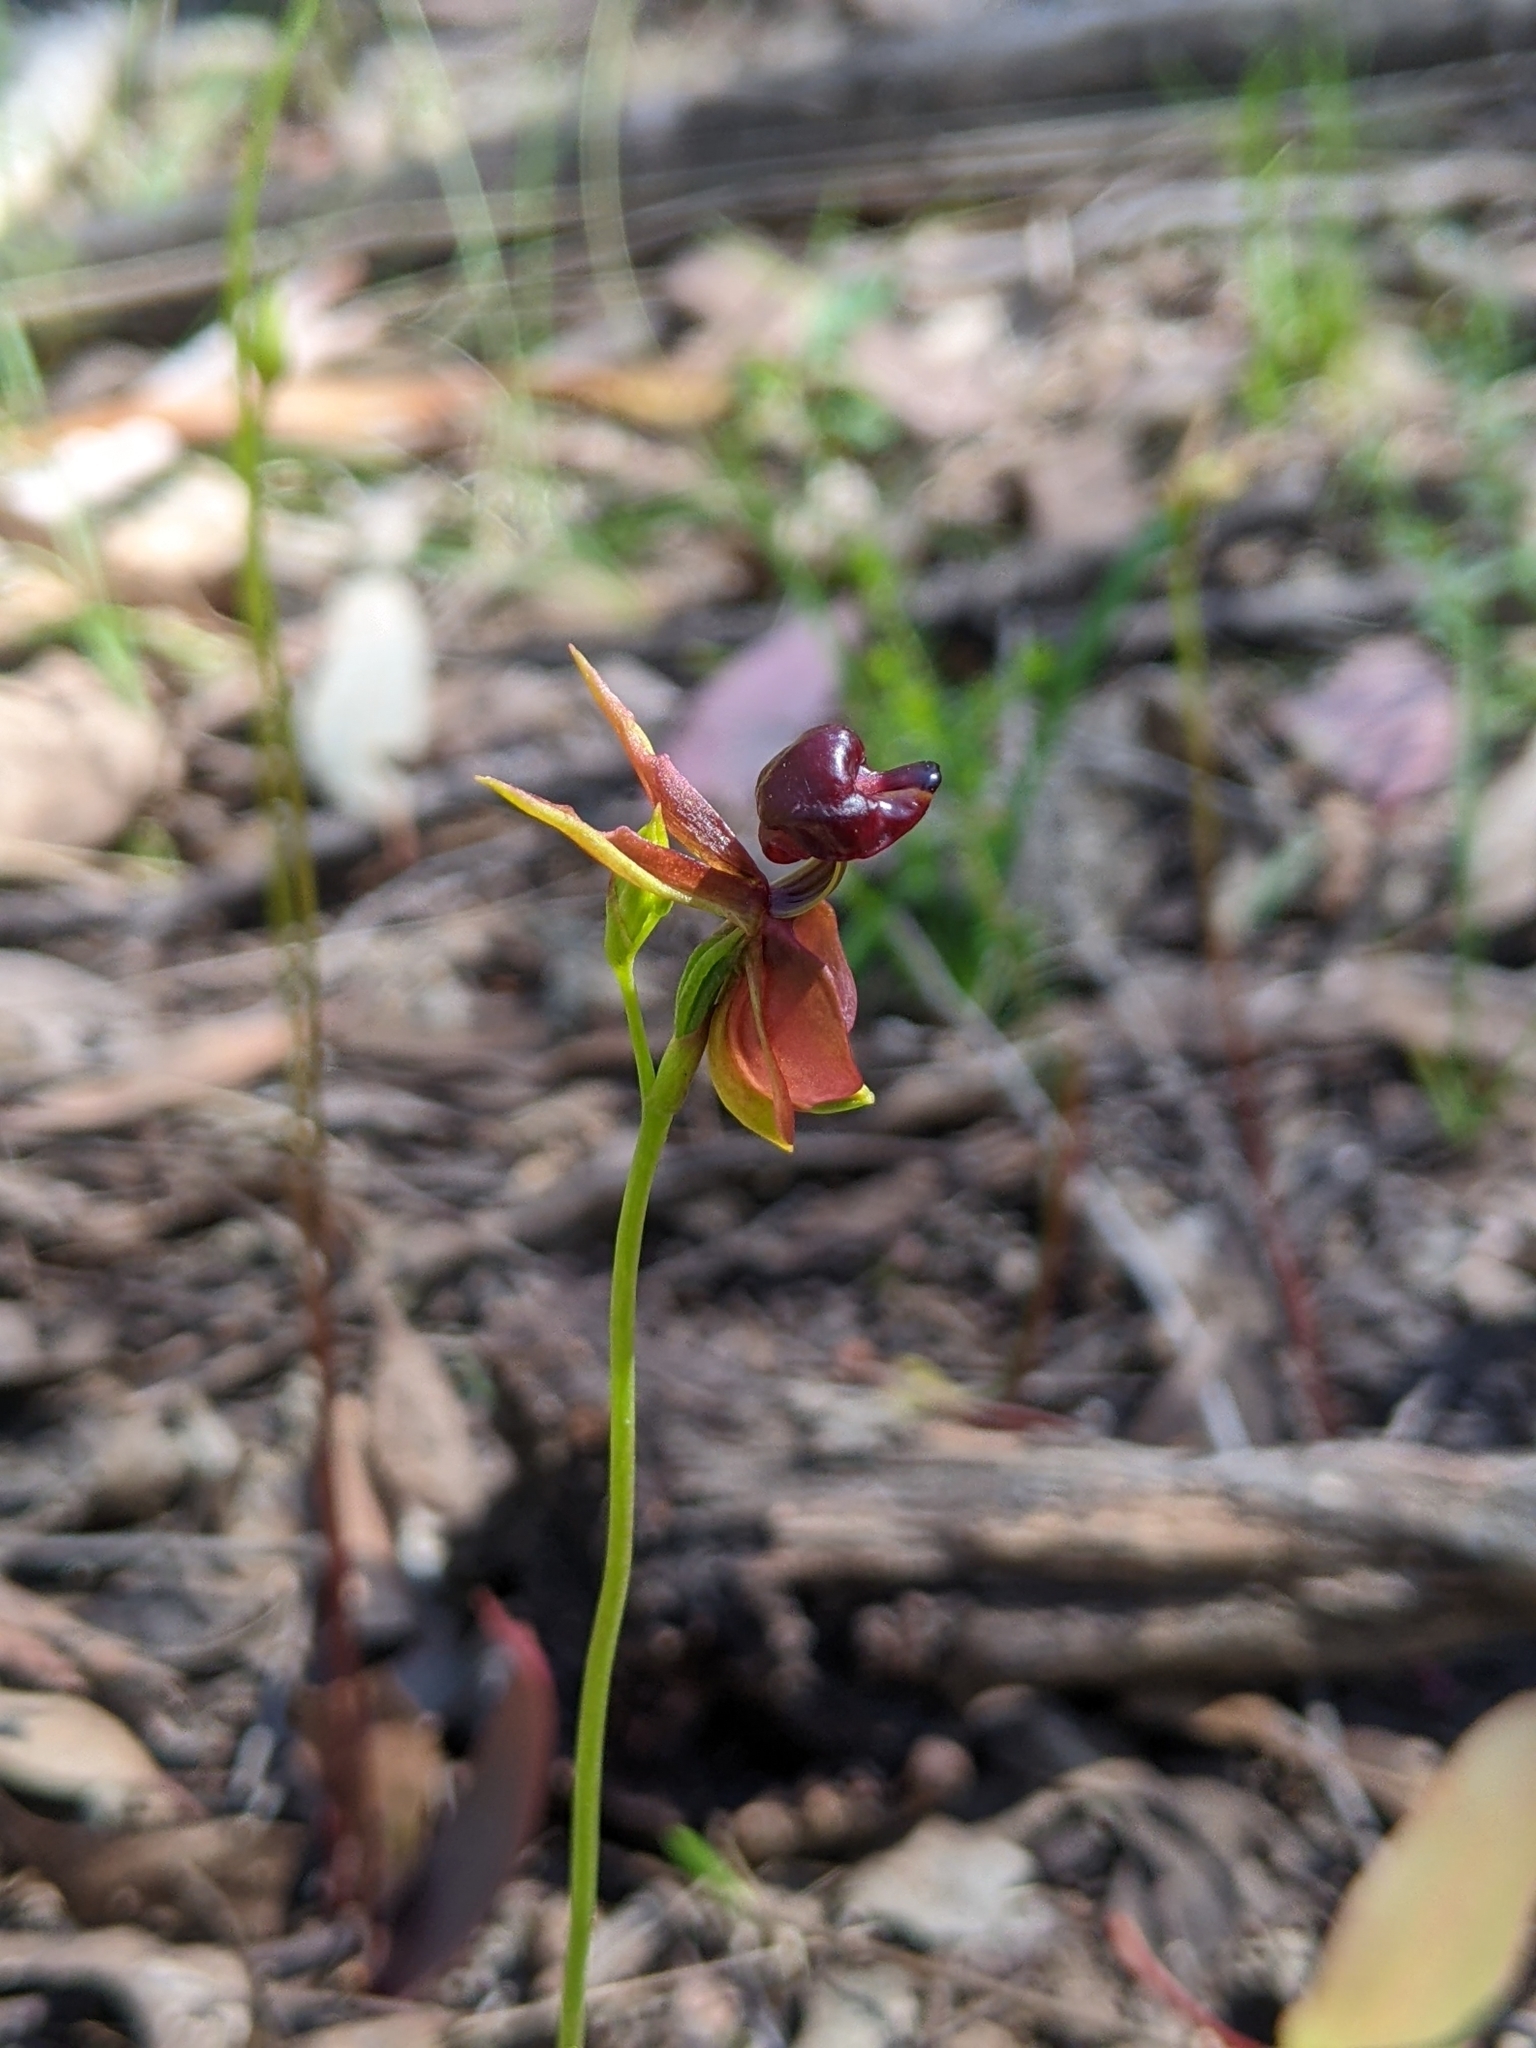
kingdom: Plantae
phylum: Tracheophyta
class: Liliopsida
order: Asparagales
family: Orchidaceae
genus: Caleana
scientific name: Caleana major
